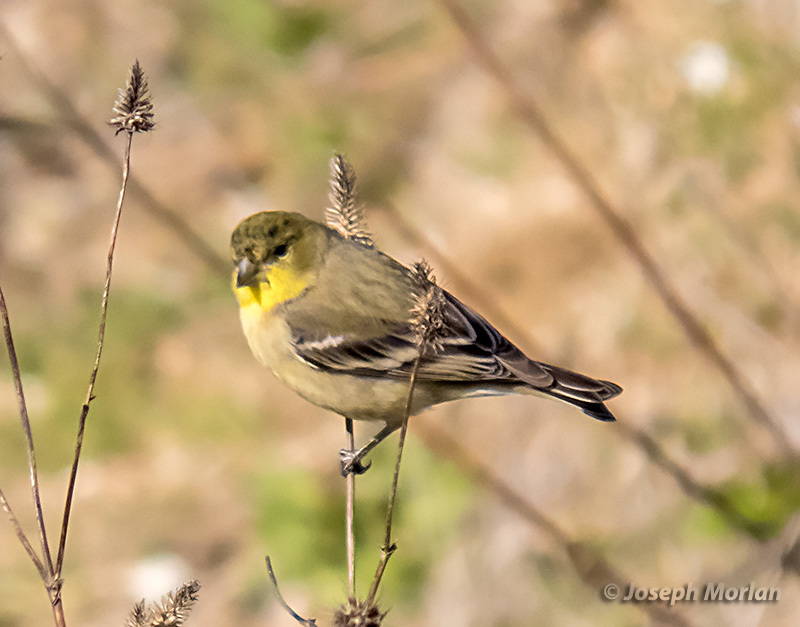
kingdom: Animalia
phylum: Chordata
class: Aves
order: Passeriformes
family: Fringillidae
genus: Spinus
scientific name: Spinus psaltria
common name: Lesser goldfinch
